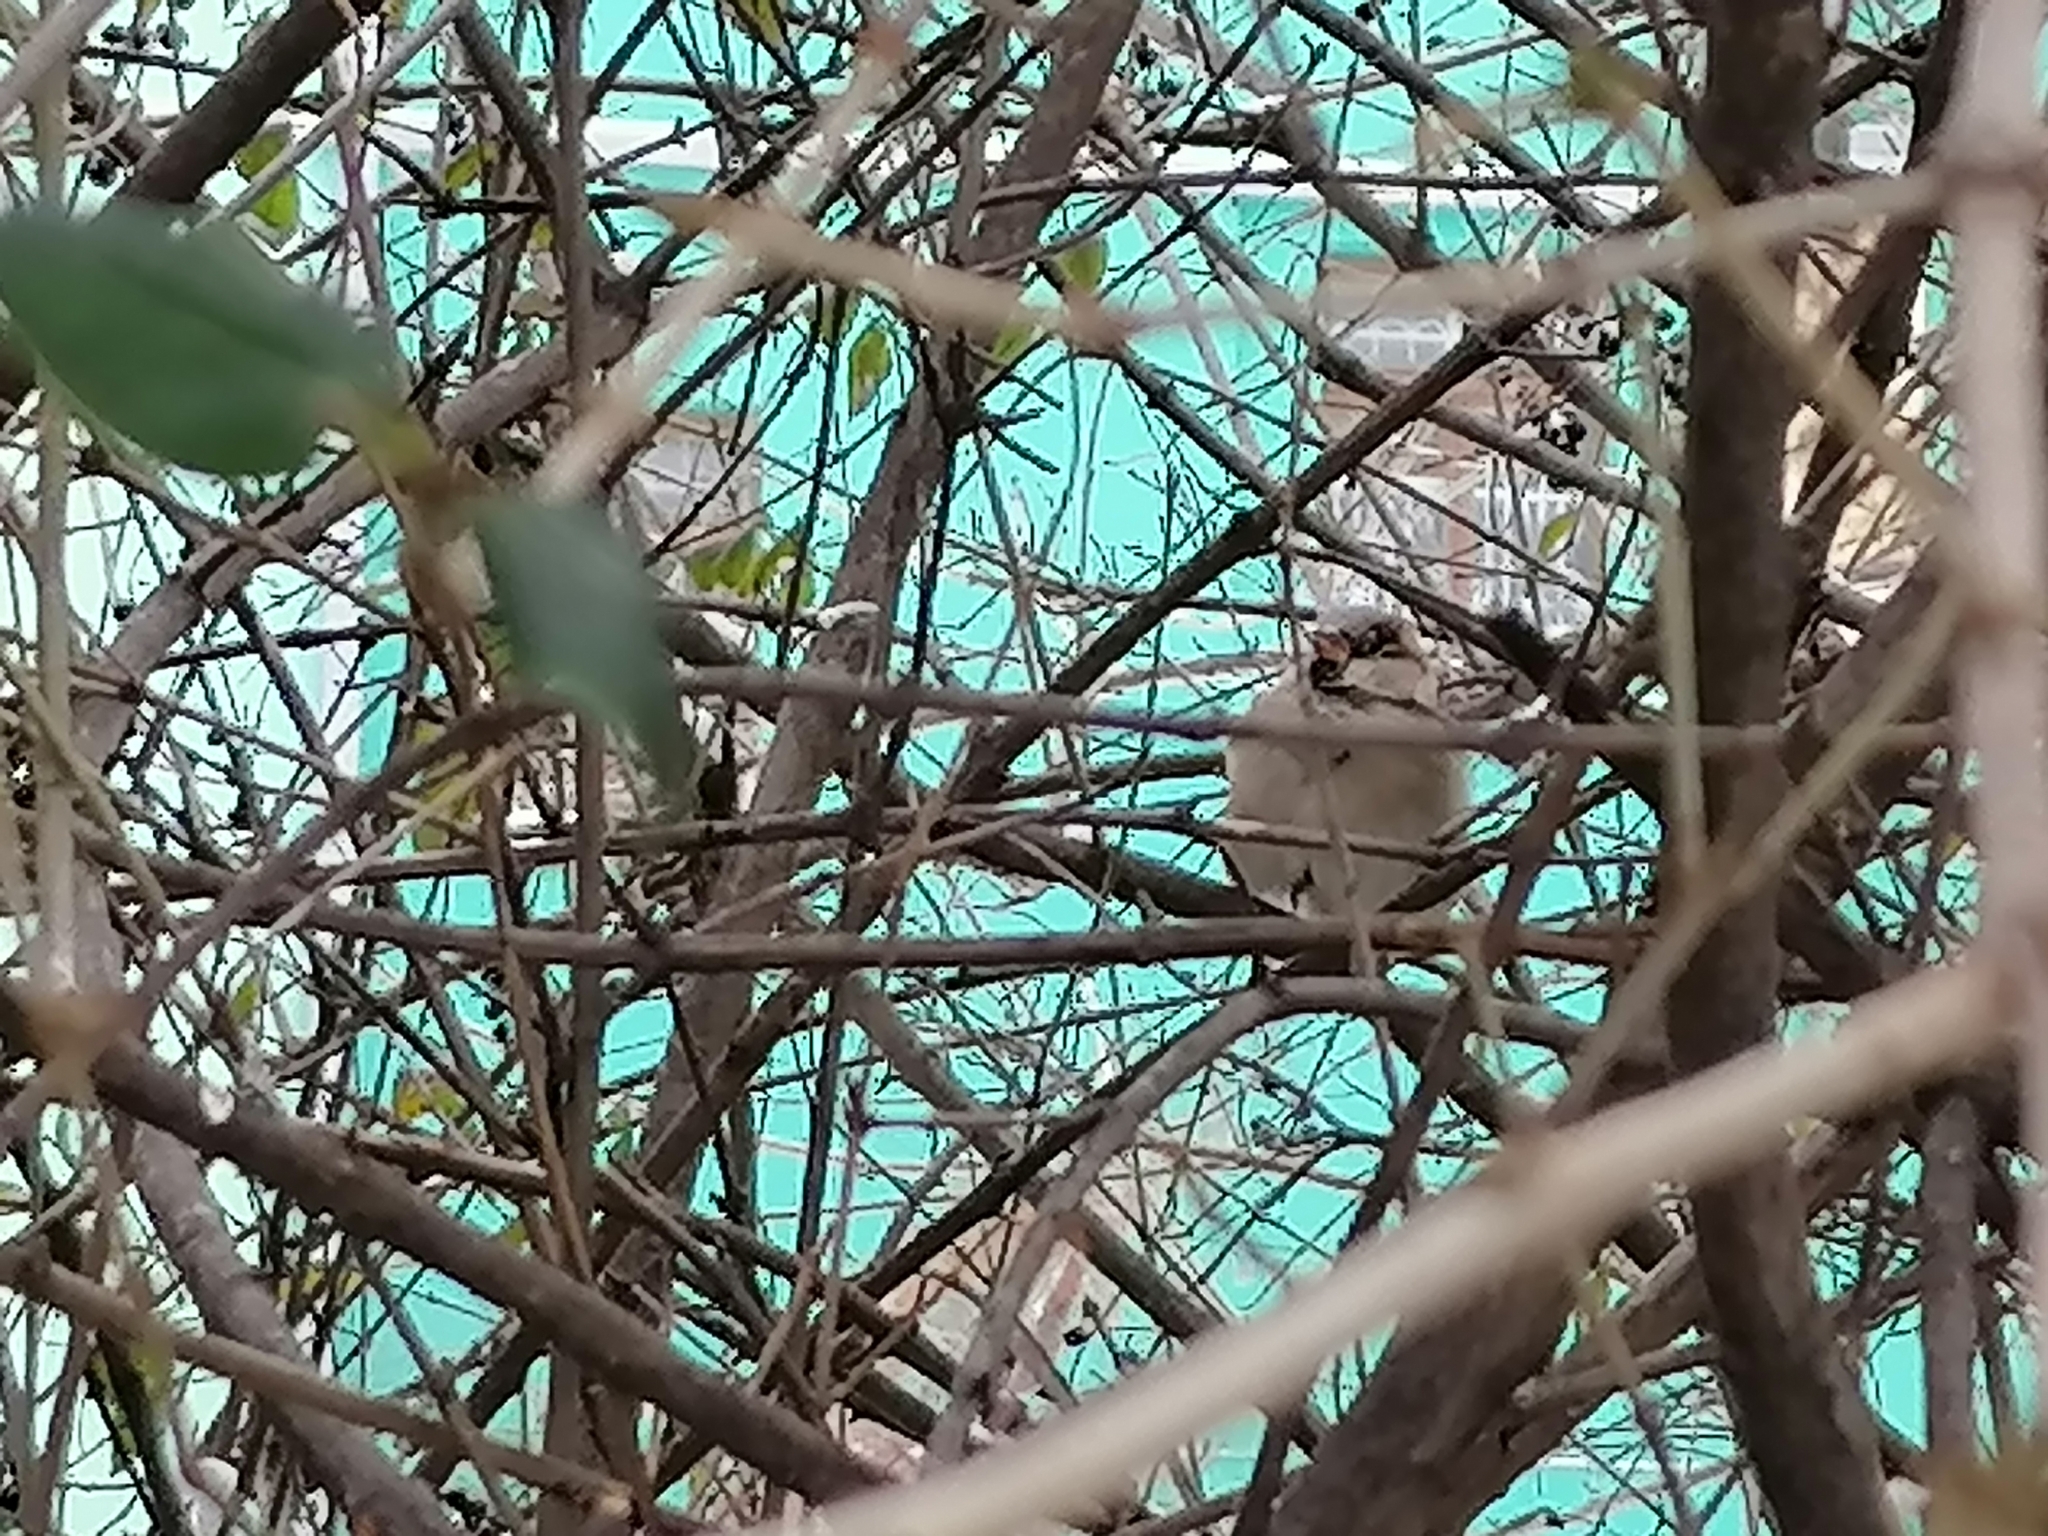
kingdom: Animalia
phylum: Chordata
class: Aves
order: Passeriformes
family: Passeridae
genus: Passer
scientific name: Passer domesticus
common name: House sparrow
